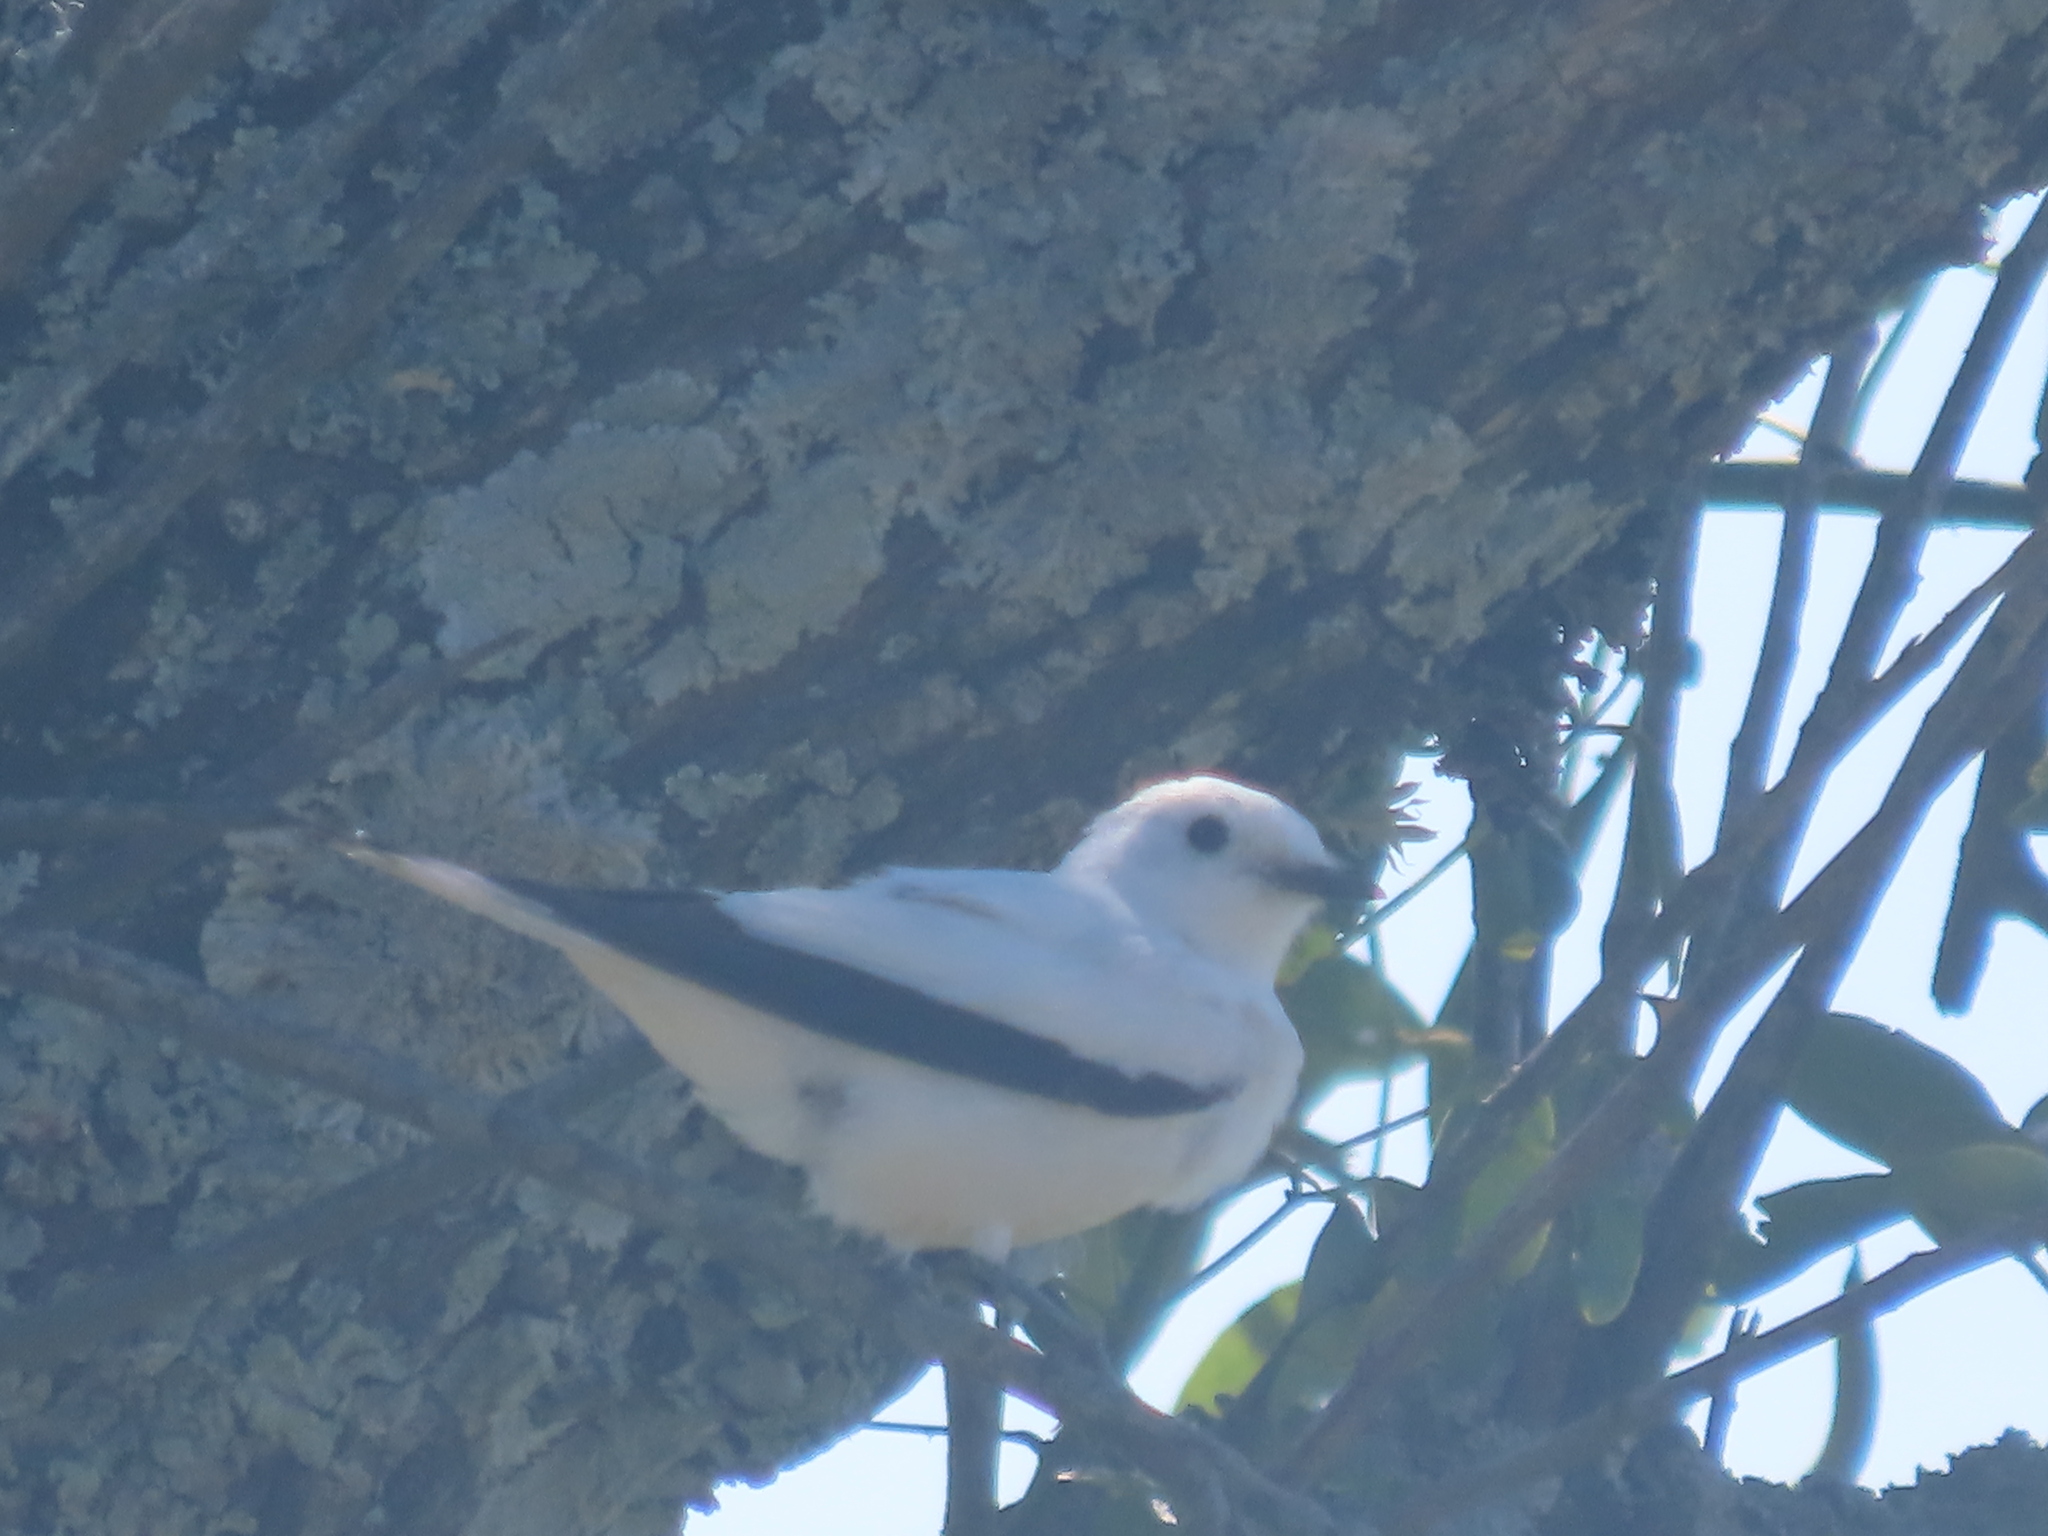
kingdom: Animalia
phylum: Chordata
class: Aves
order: Passeriformes
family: Tyrannidae
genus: Xolmis
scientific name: Xolmis irupero
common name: White monjita
